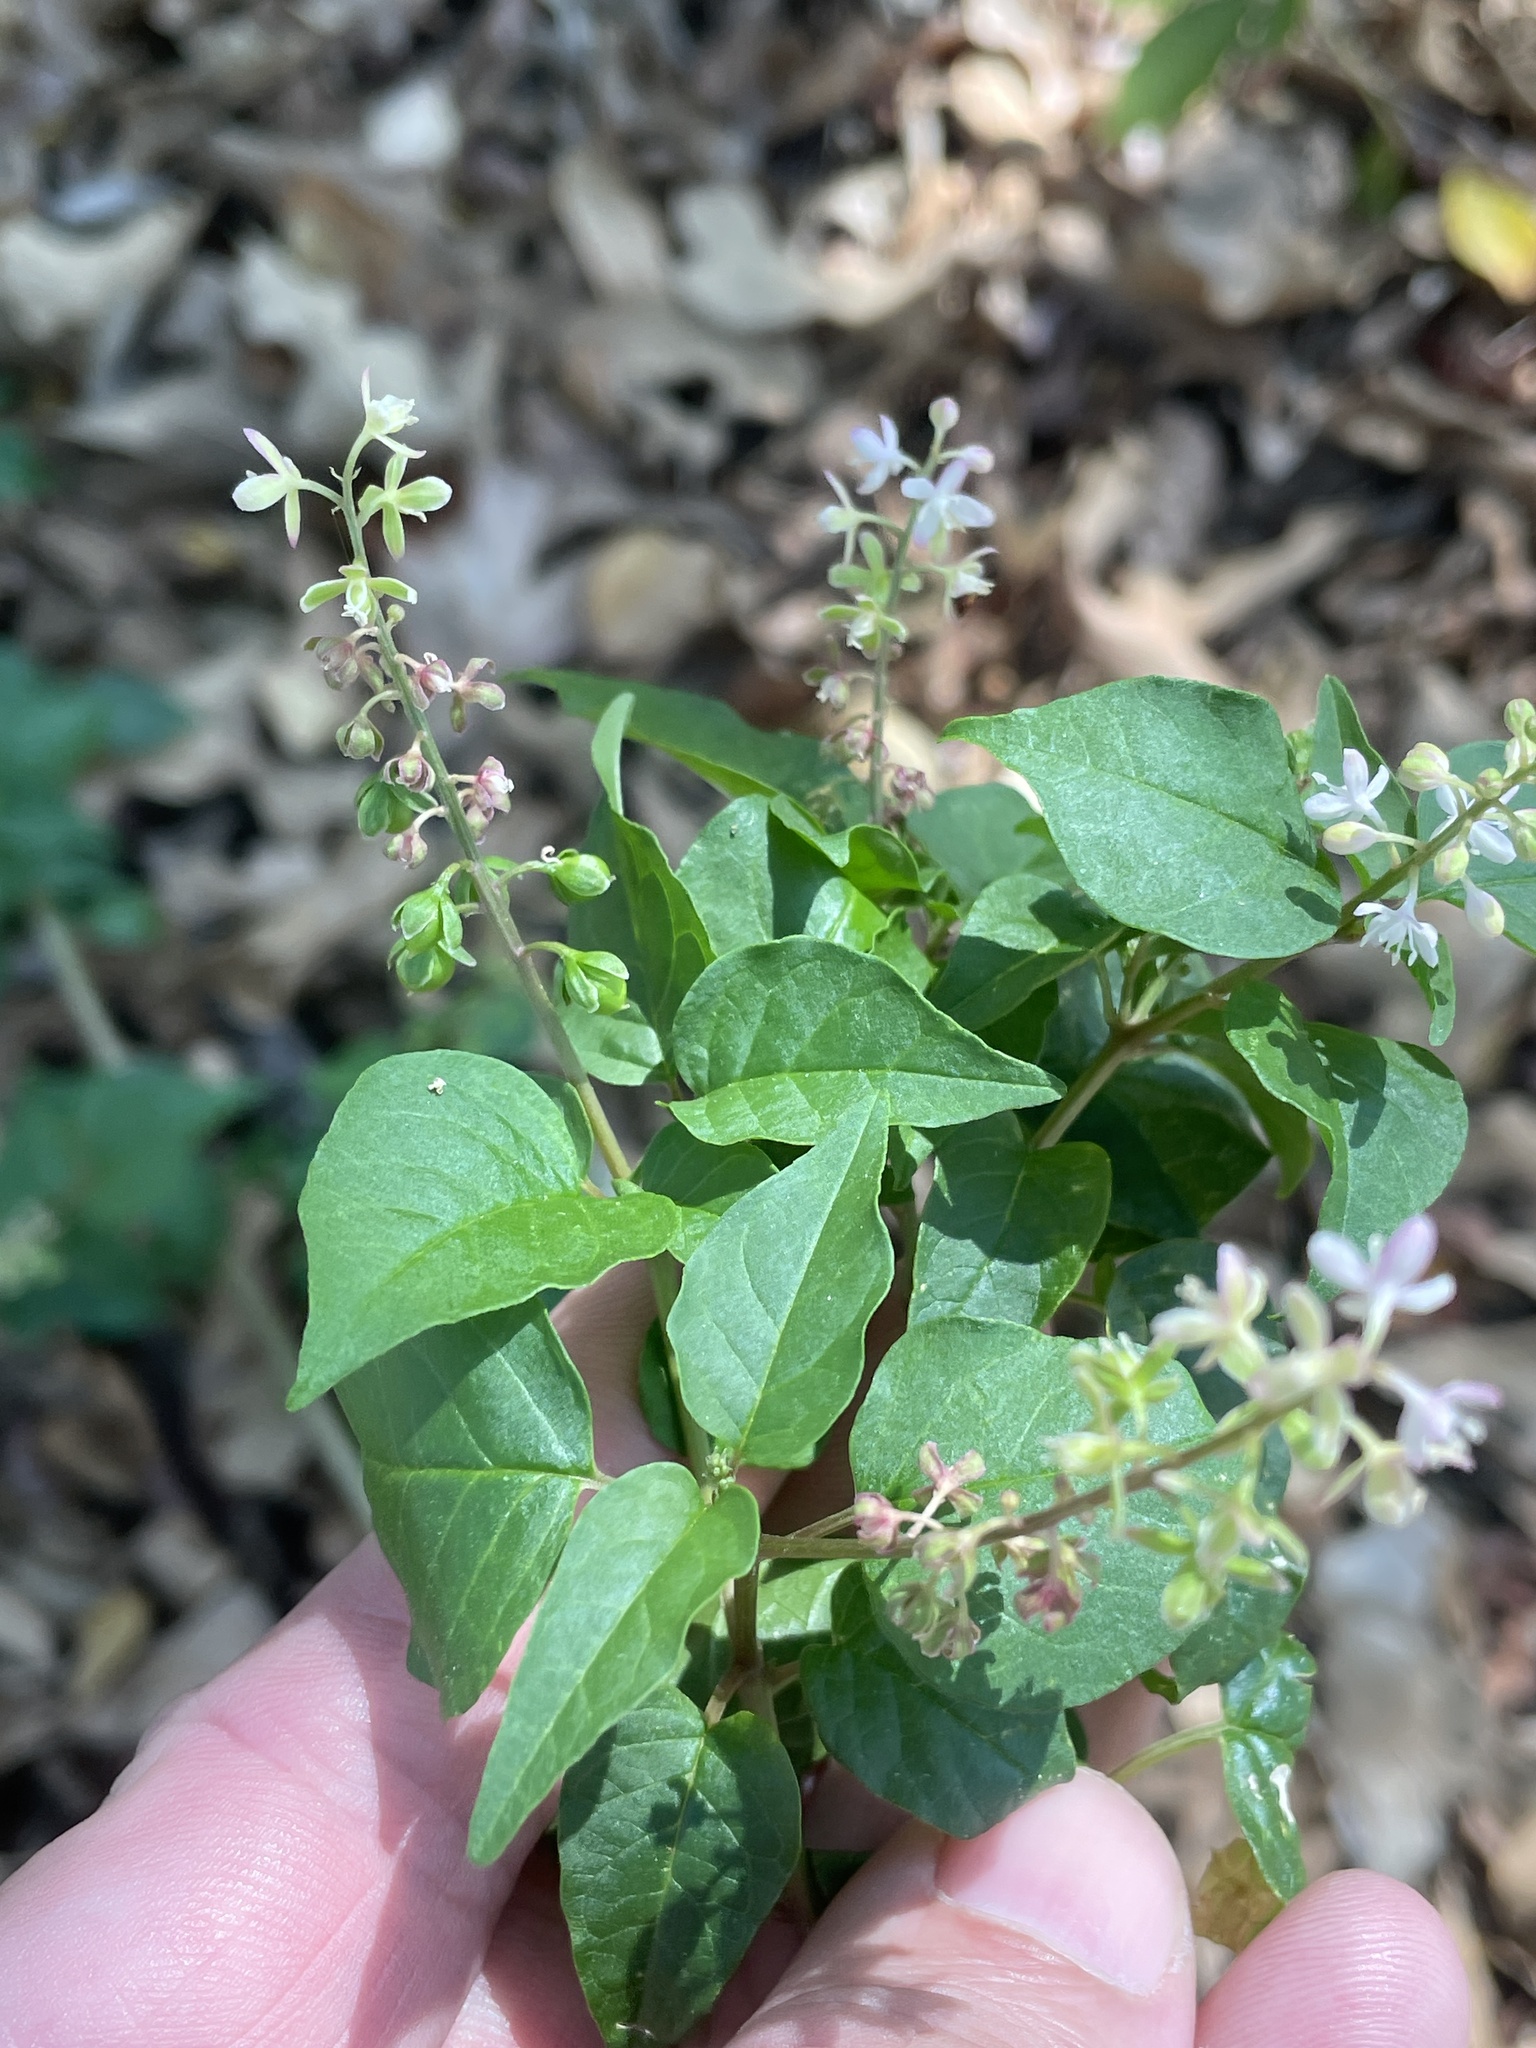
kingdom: Plantae
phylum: Tracheophyta
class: Magnoliopsida
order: Caryophyllales
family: Phytolaccaceae
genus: Rivina
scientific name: Rivina humilis
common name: Rougeplant
